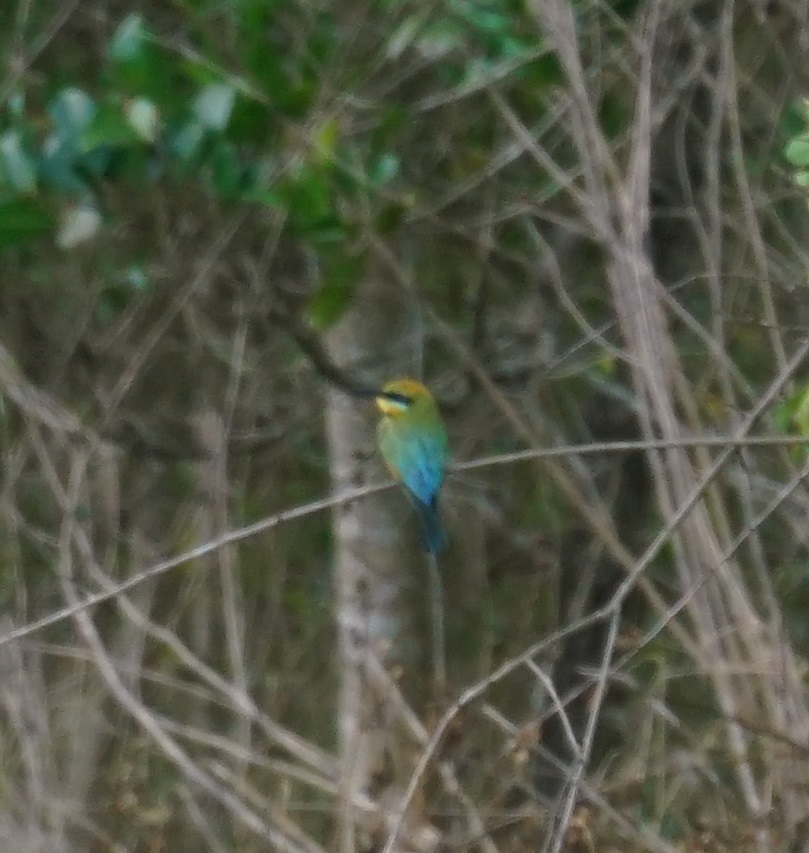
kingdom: Animalia
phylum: Chordata
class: Aves
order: Coraciiformes
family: Meropidae
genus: Merops
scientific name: Merops ornatus
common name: Rainbow bee-eater
